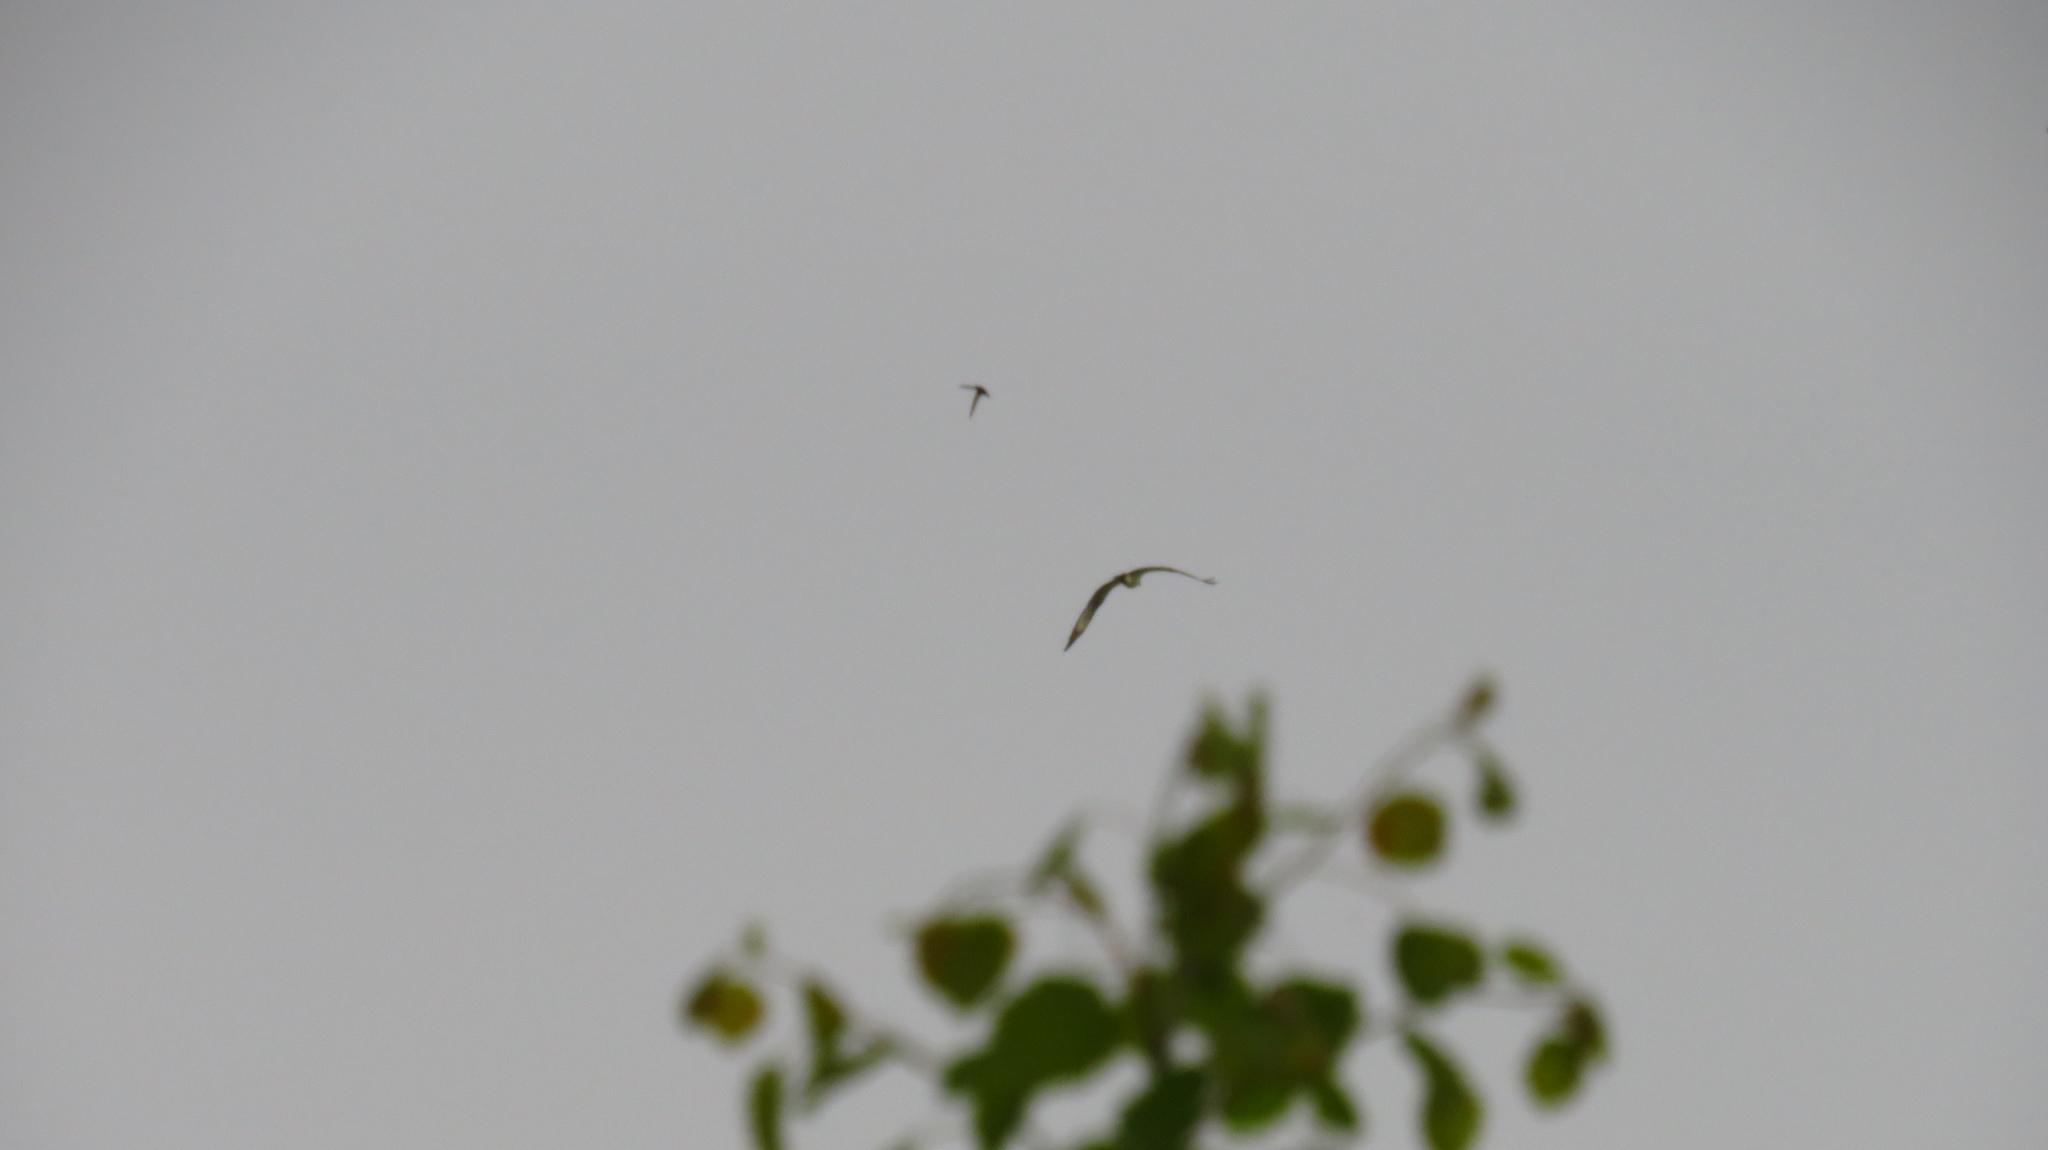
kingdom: Animalia
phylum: Chordata
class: Aves
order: Accipitriformes
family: Pandionidae
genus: Pandion
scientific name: Pandion haliaetus
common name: Osprey
